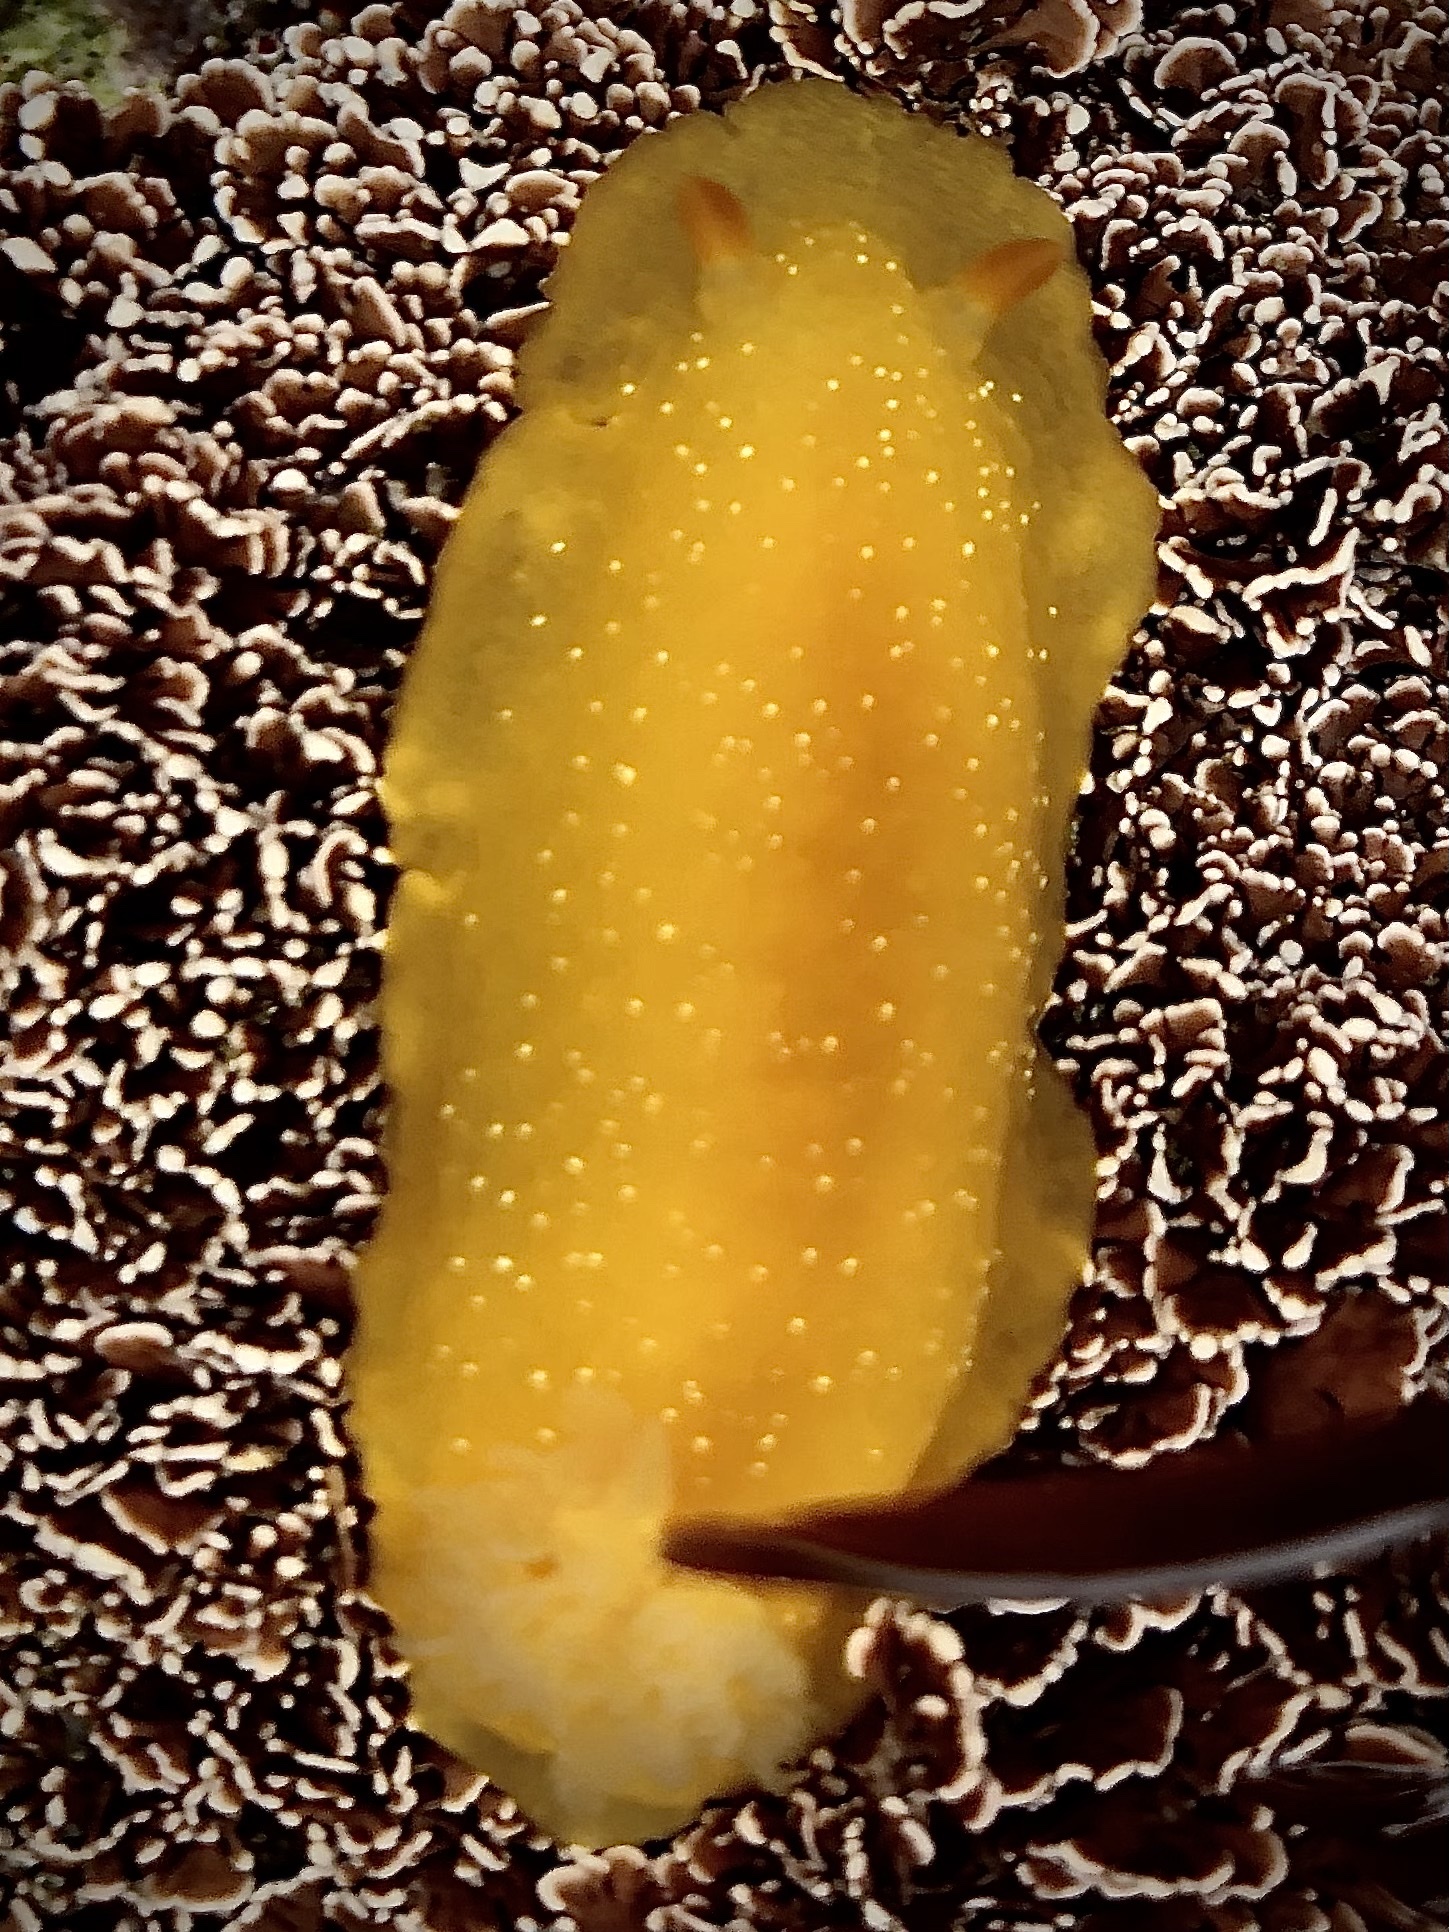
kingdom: Animalia
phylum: Mollusca
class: Gastropoda
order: Nudibranchia
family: Dendrodorididae
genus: Doriopsilla
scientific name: Doriopsilla fulva
